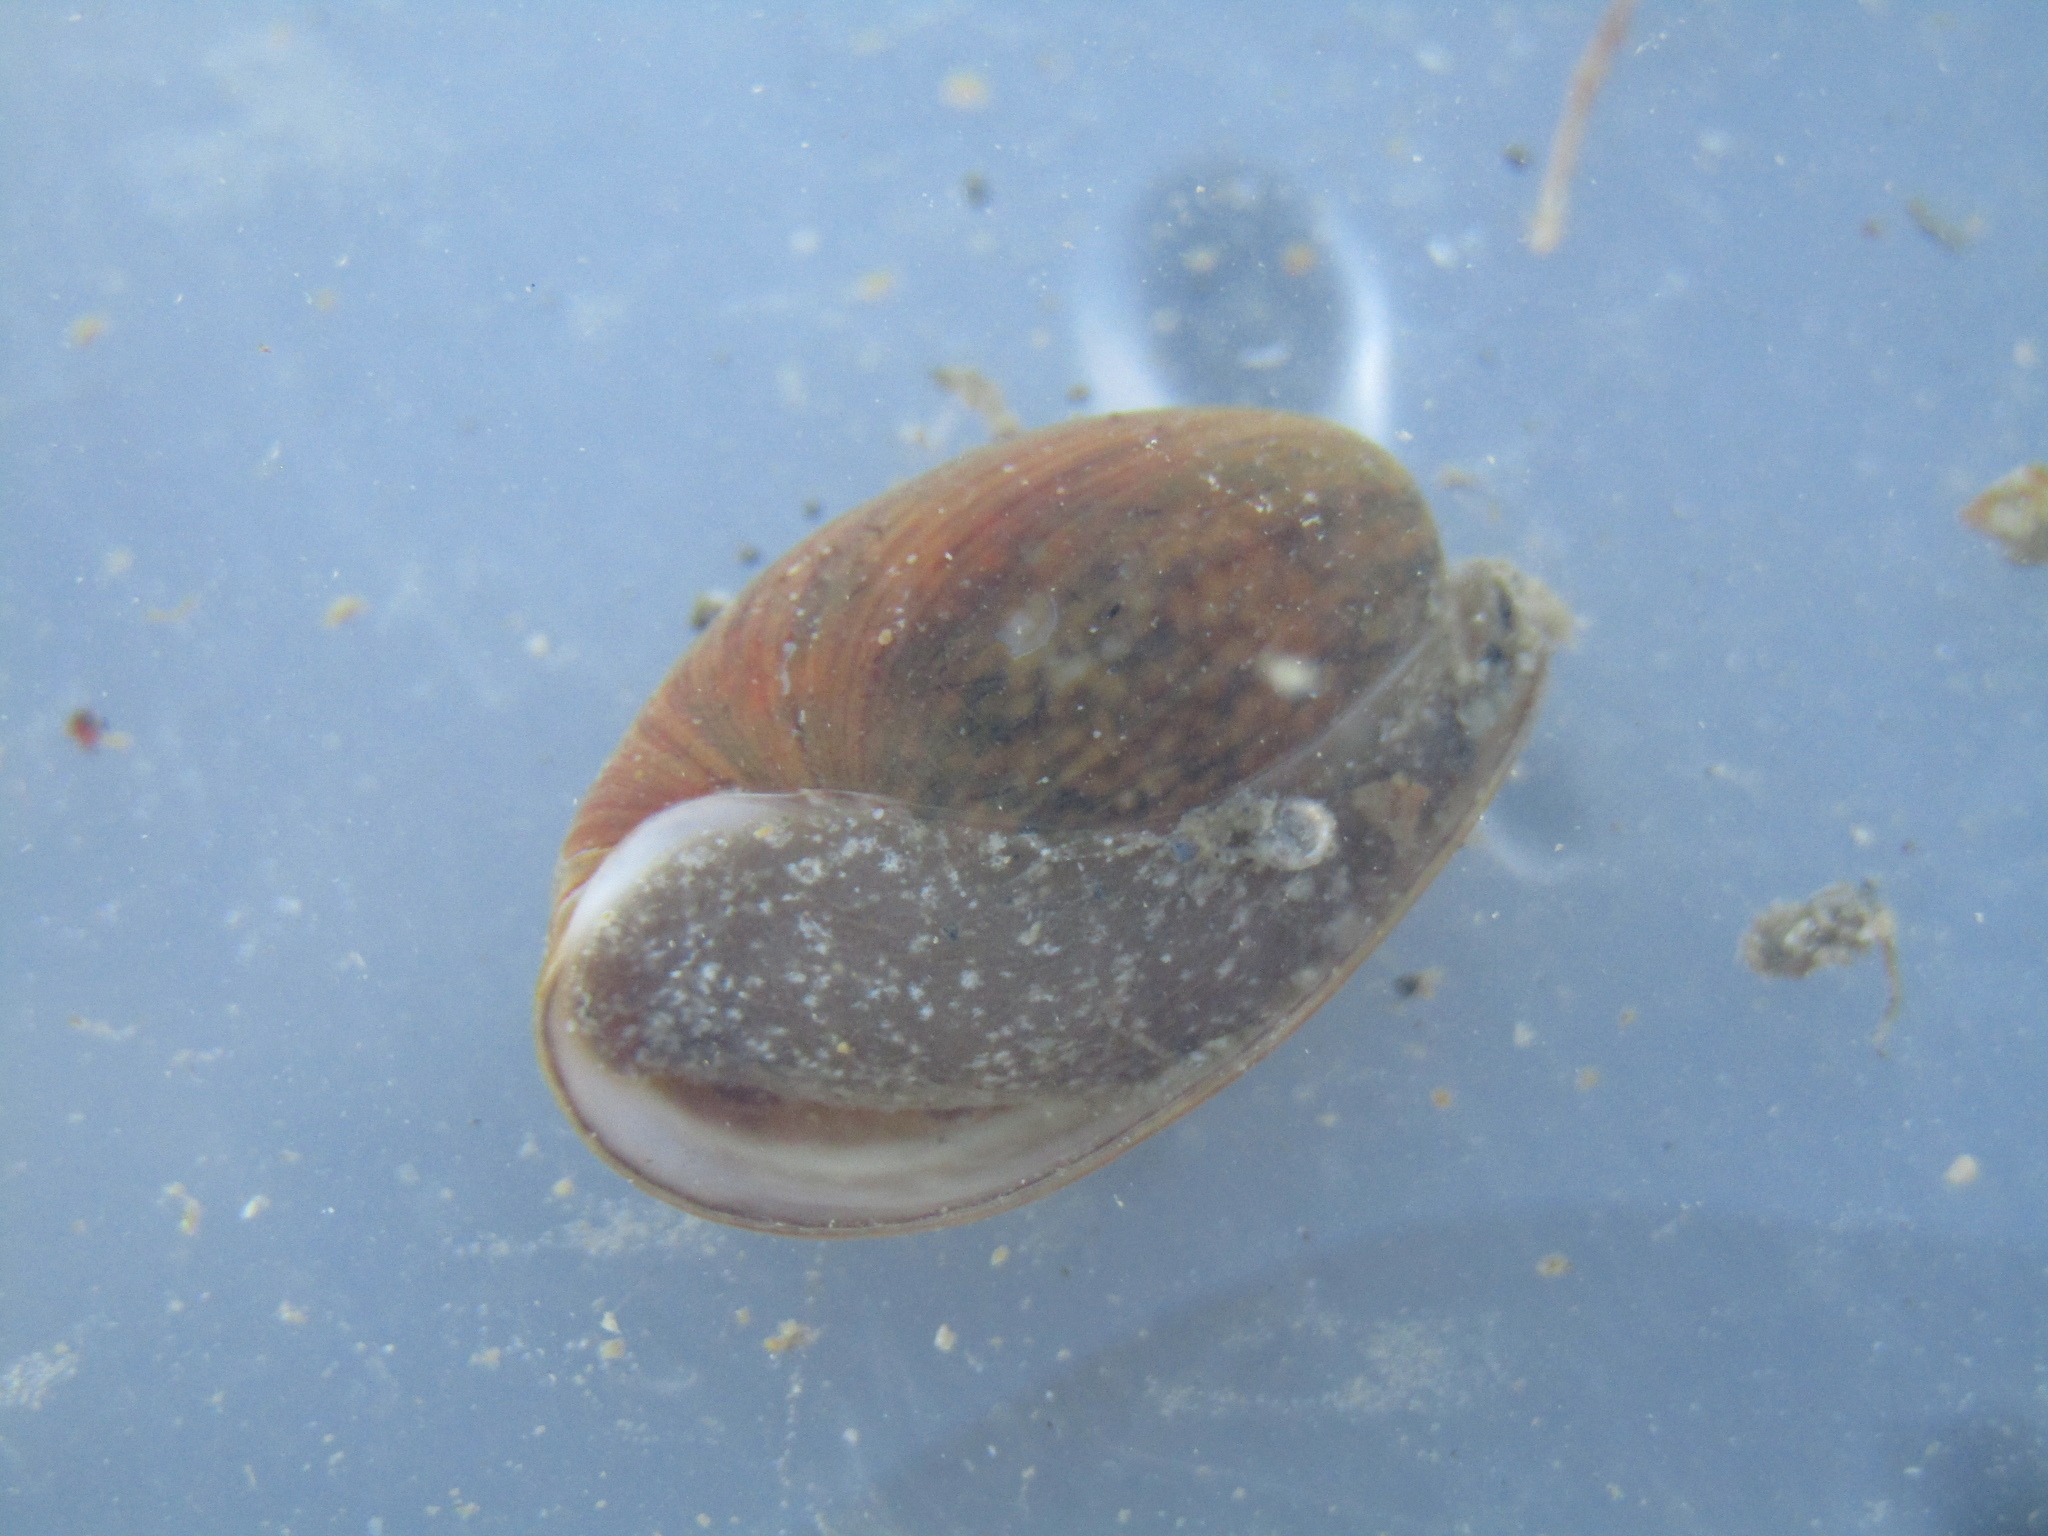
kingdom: Animalia
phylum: Mollusca
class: Gastropoda
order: Cephalaspidea
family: Bullidae
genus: Bulla
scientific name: Bulla quoyii
